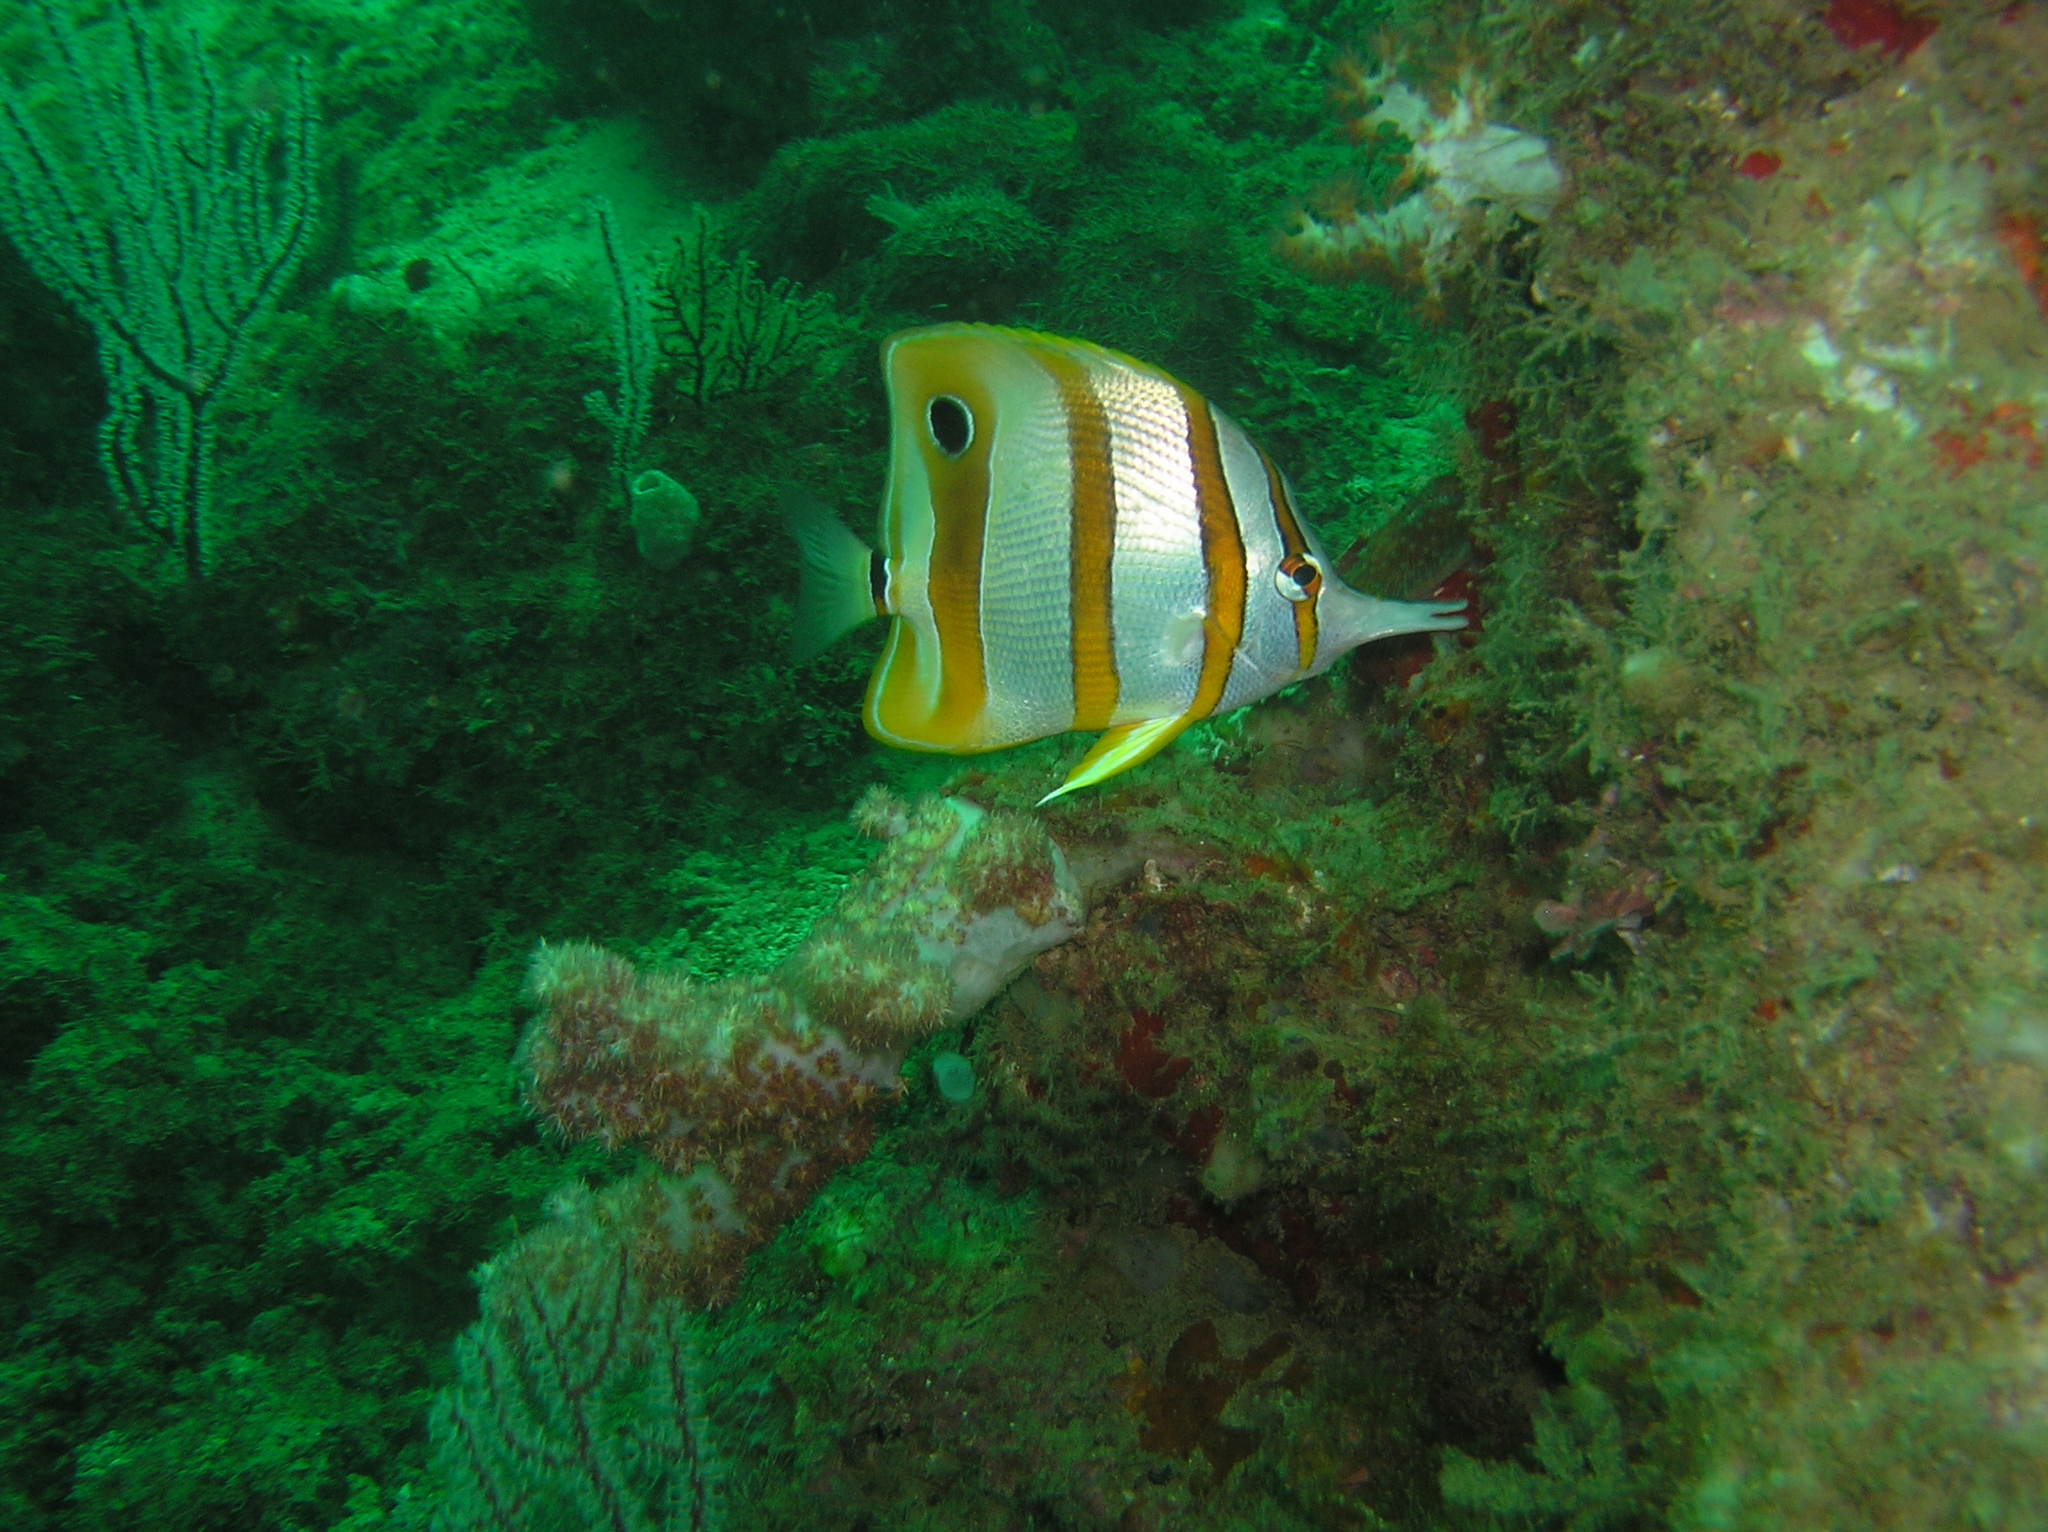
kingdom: Animalia
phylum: Chordata
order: Perciformes
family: Chaetodontidae
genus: Chelmon
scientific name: Chelmon rostratus
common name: Beaked butterflyfish
